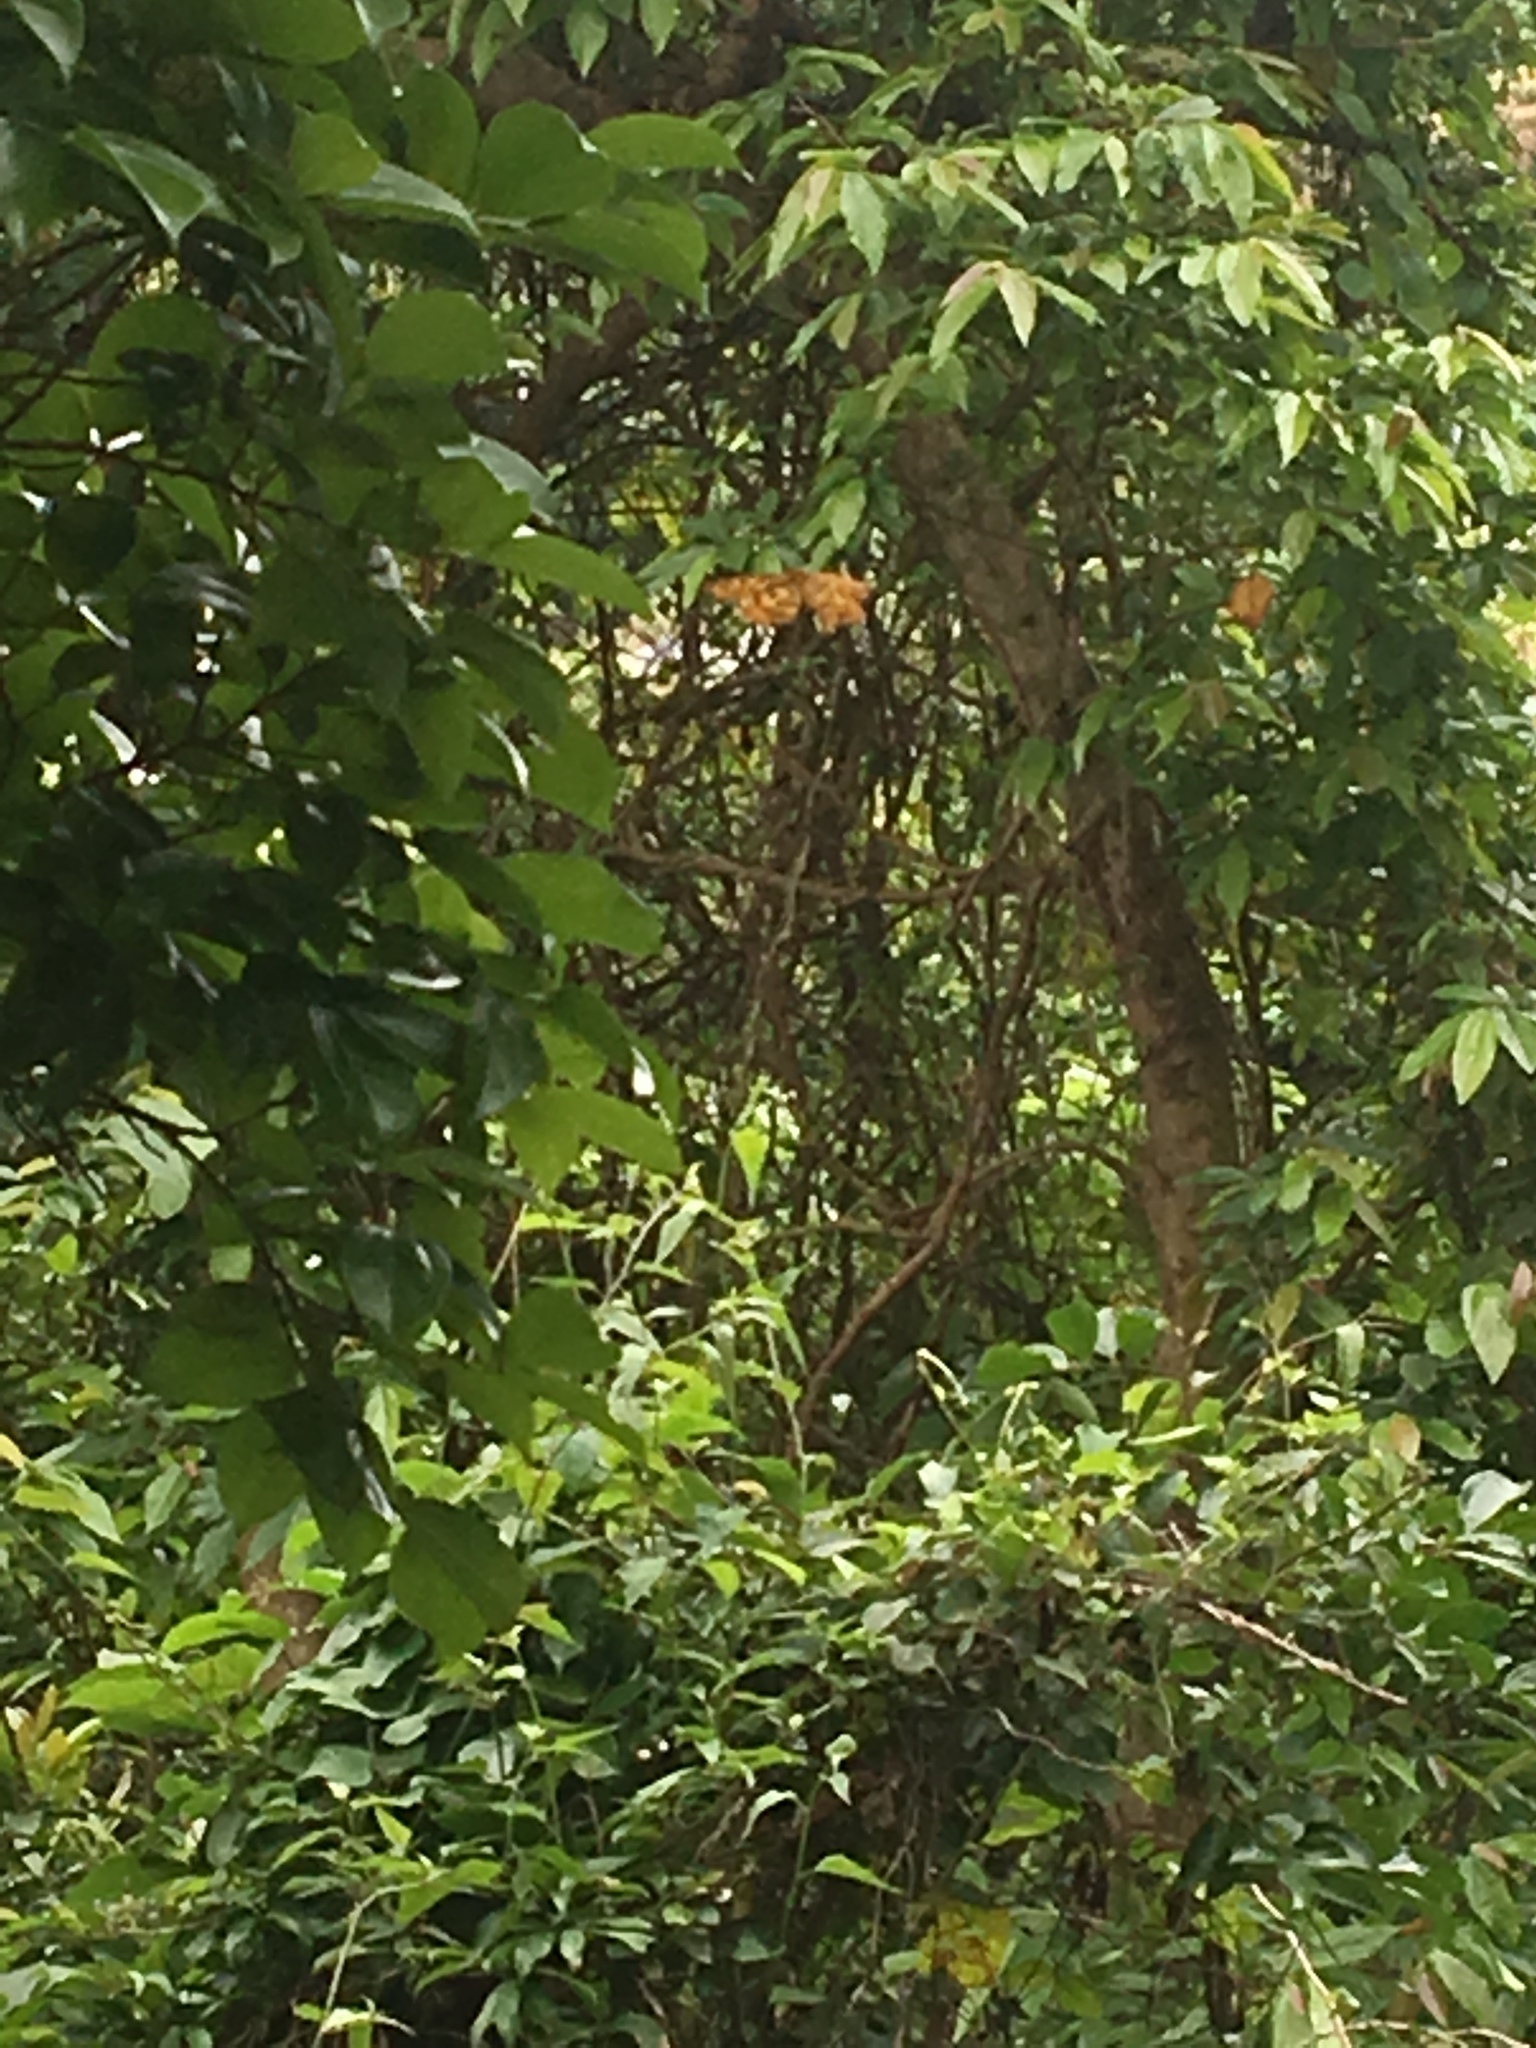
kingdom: Animalia
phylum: Arthropoda
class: Insecta
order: Lepidoptera
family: Geometridae
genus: Obeidia
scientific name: Obeidia Epobeidia tigrata
